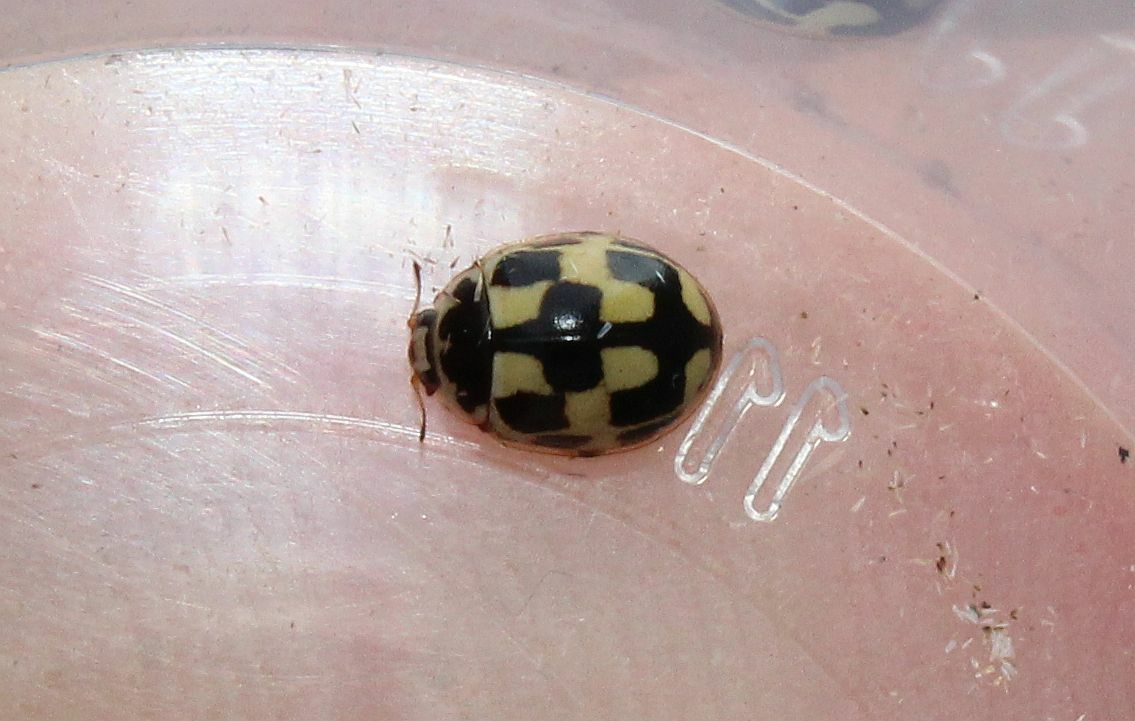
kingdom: Animalia
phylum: Arthropoda
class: Insecta
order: Coleoptera
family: Coccinellidae
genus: Propylaea
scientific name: Propylaea quatuordecimpunctata
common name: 14-spotted ladybird beetle
